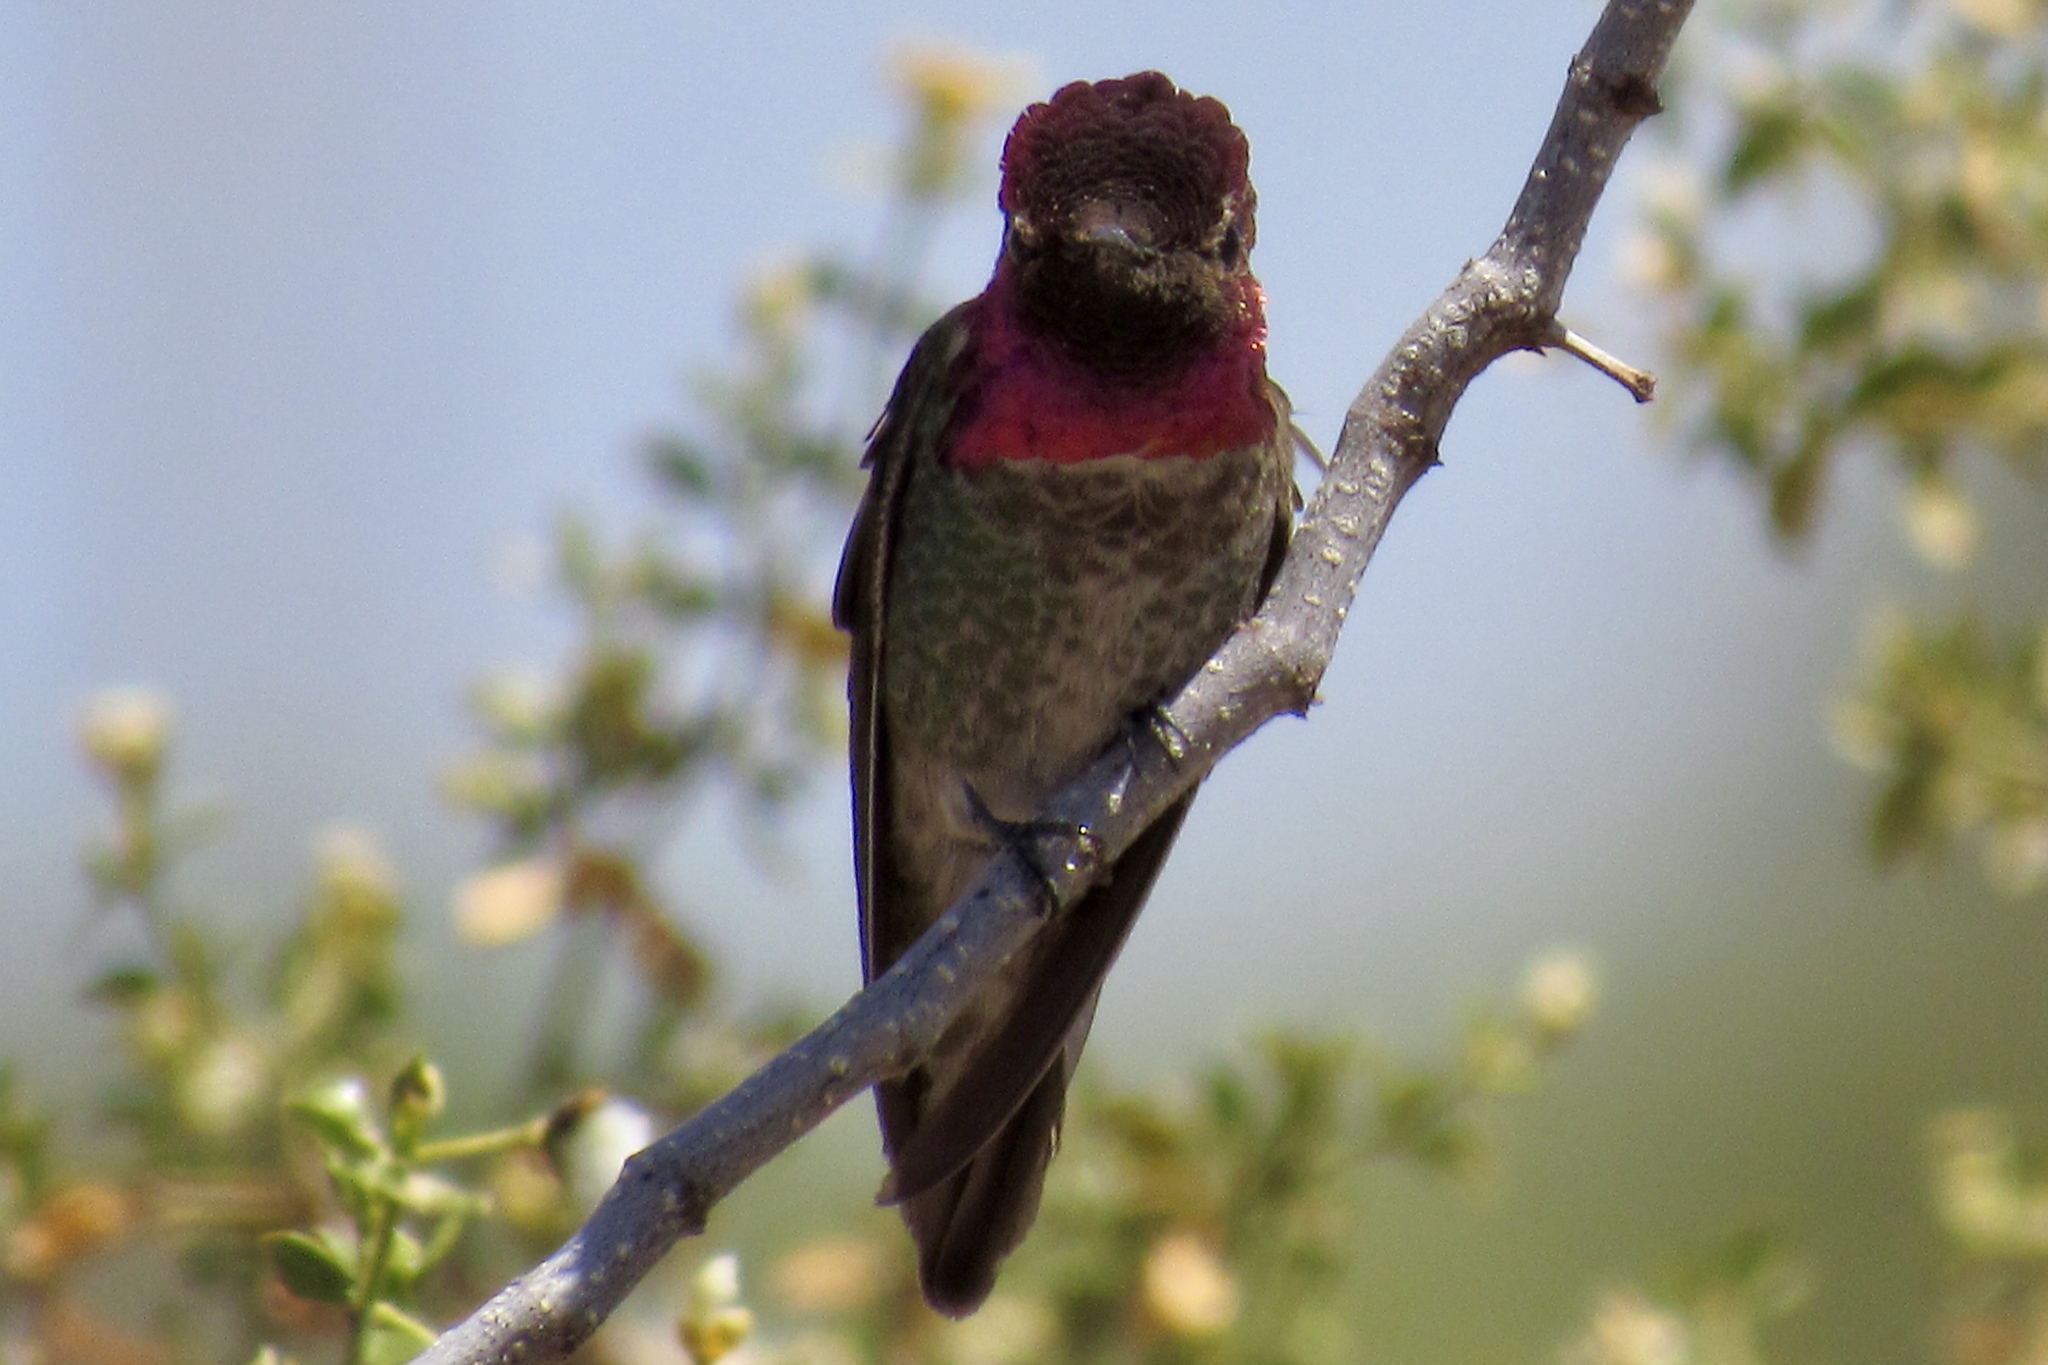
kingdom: Animalia
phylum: Chordata
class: Aves
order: Apodiformes
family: Trochilidae
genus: Calypte
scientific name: Calypte anna
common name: Anna's hummingbird
